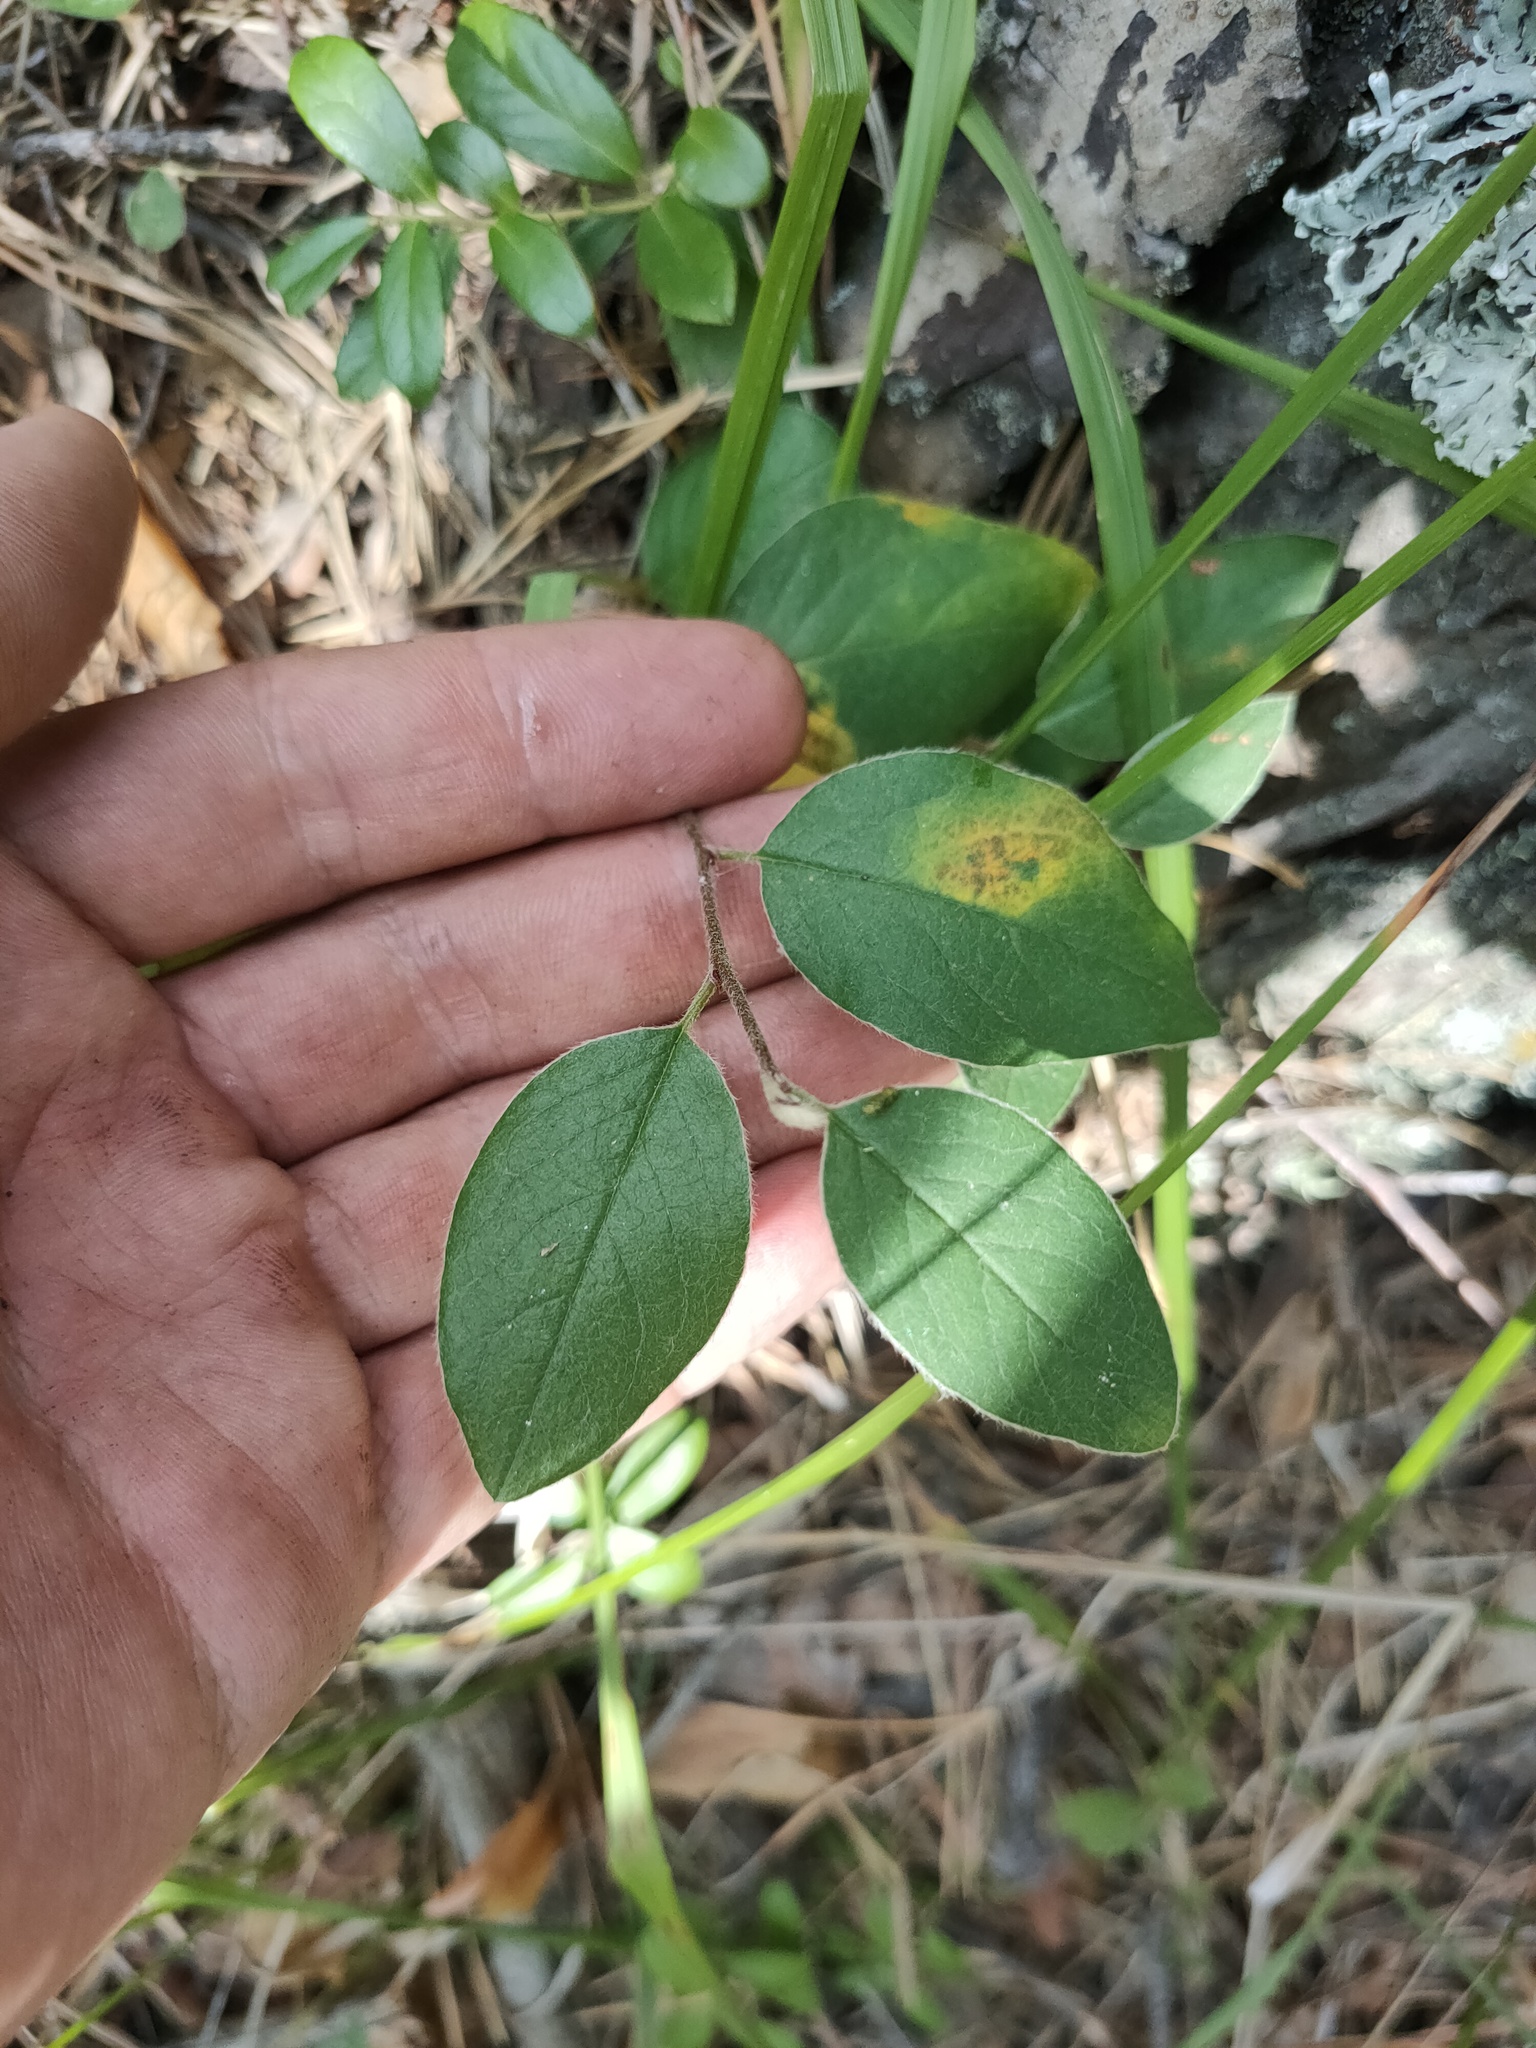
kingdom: Plantae
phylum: Tracheophyta
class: Magnoliopsida
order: Rosales
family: Rosaceae
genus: Cotoneaster
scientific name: Cotoneaster melanocarpus
